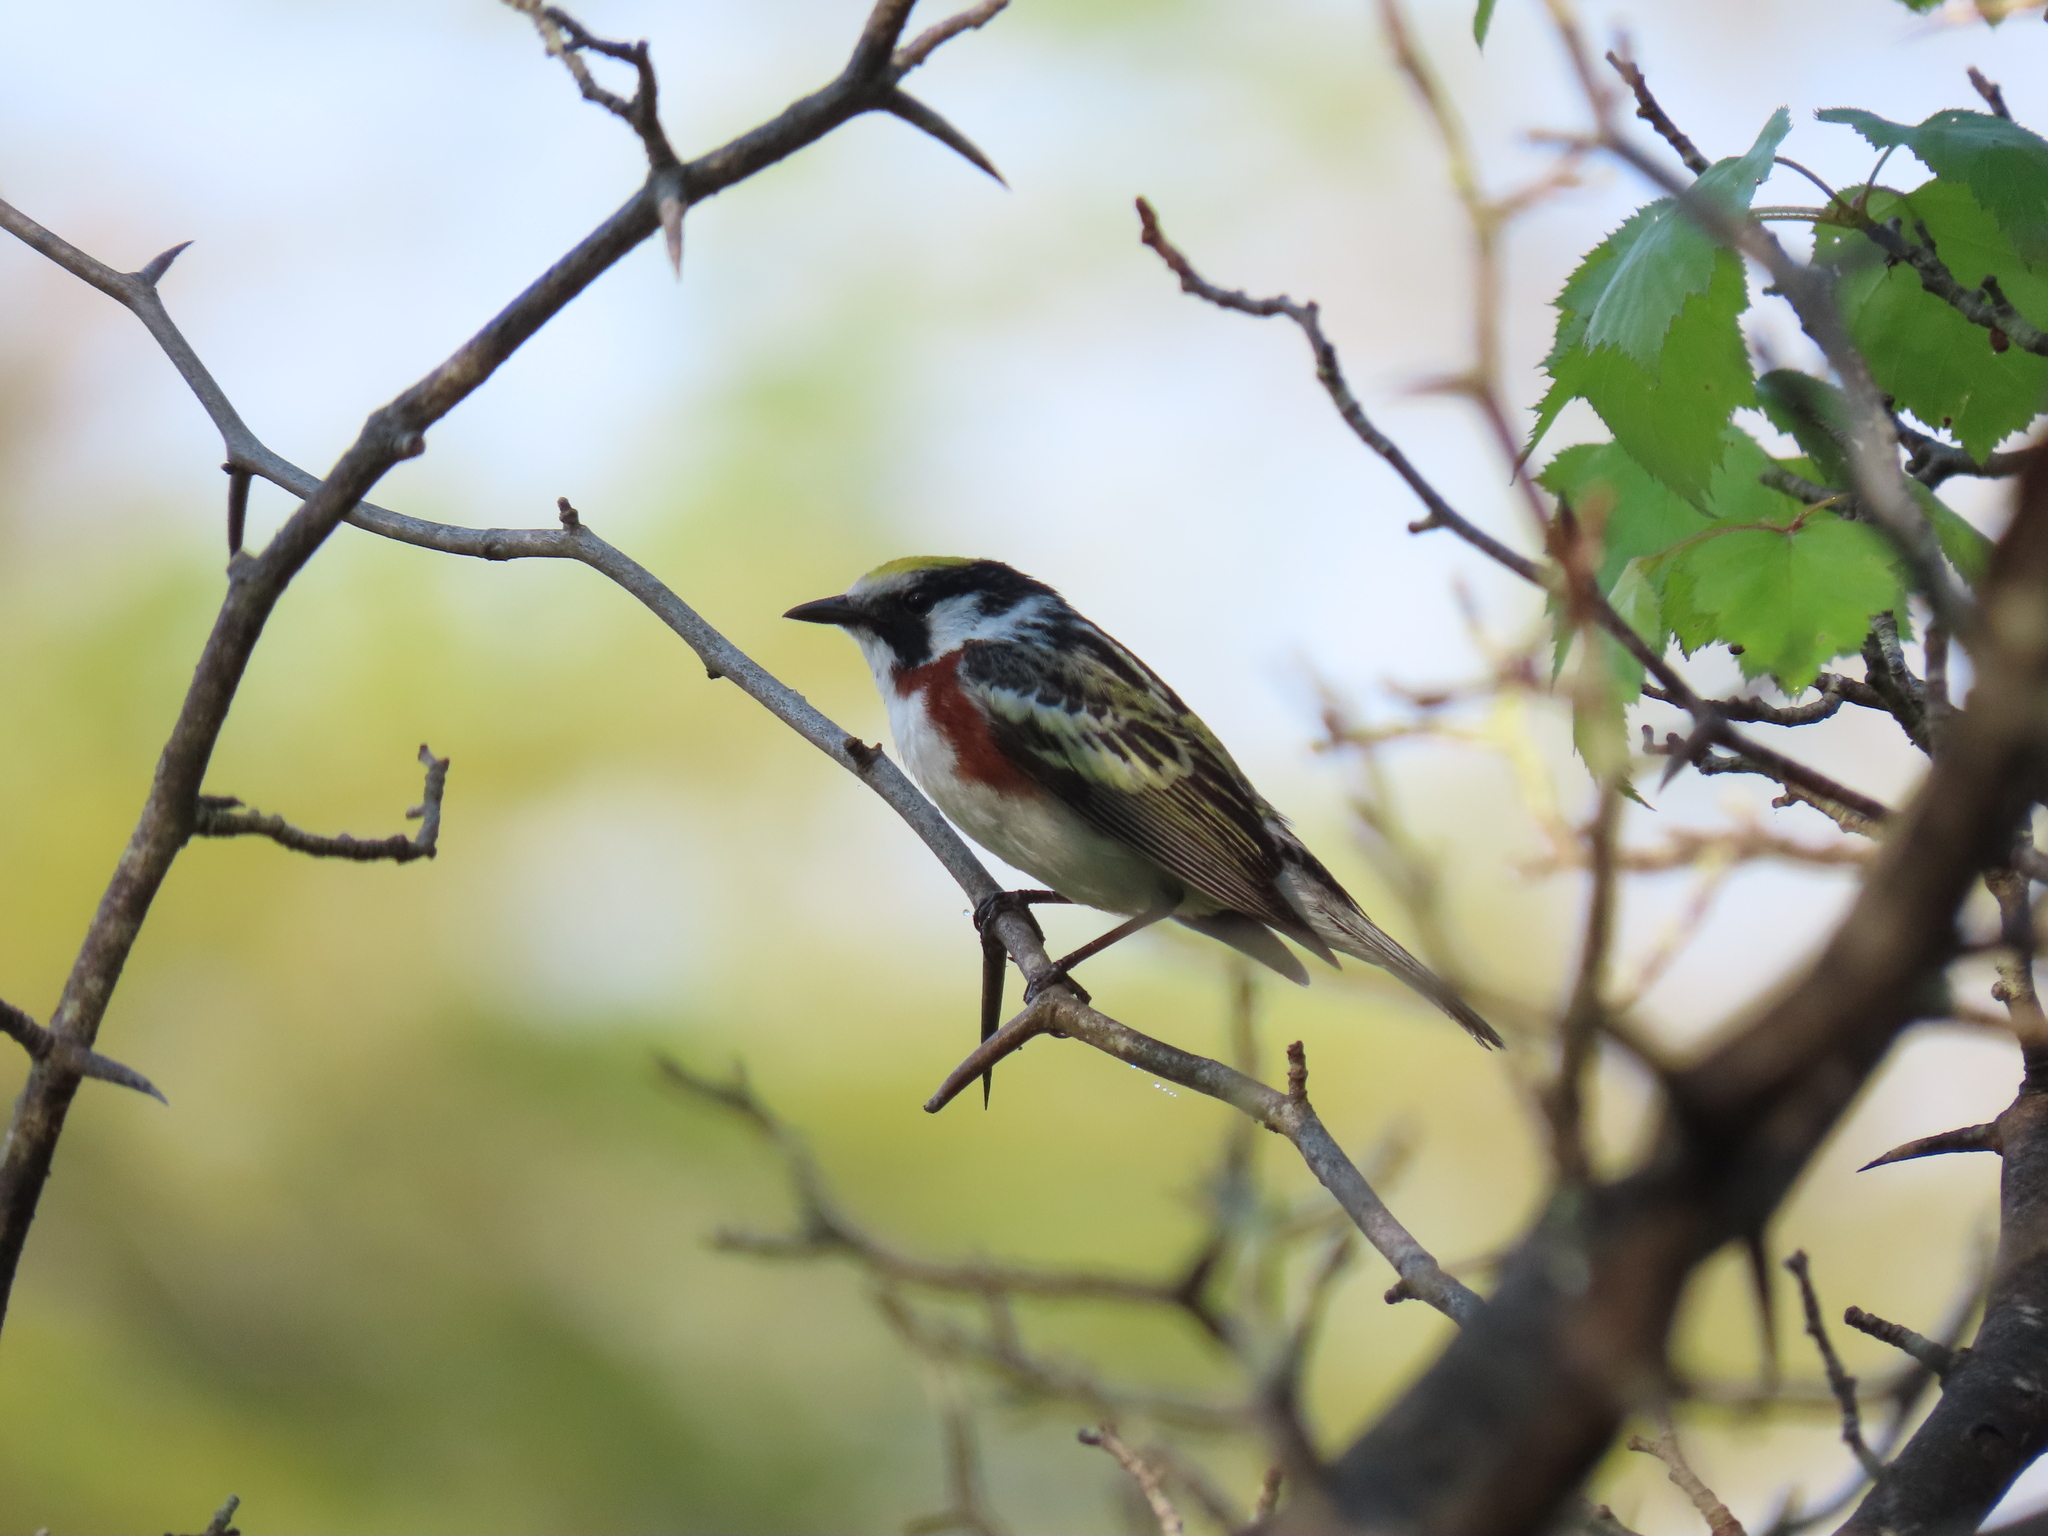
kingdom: Animalia
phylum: Chordata
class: Aves
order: Passeriformes
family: Parulidae
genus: Setophaga
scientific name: Setophaga pensylvanica
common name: Chestnut-sided warbler
